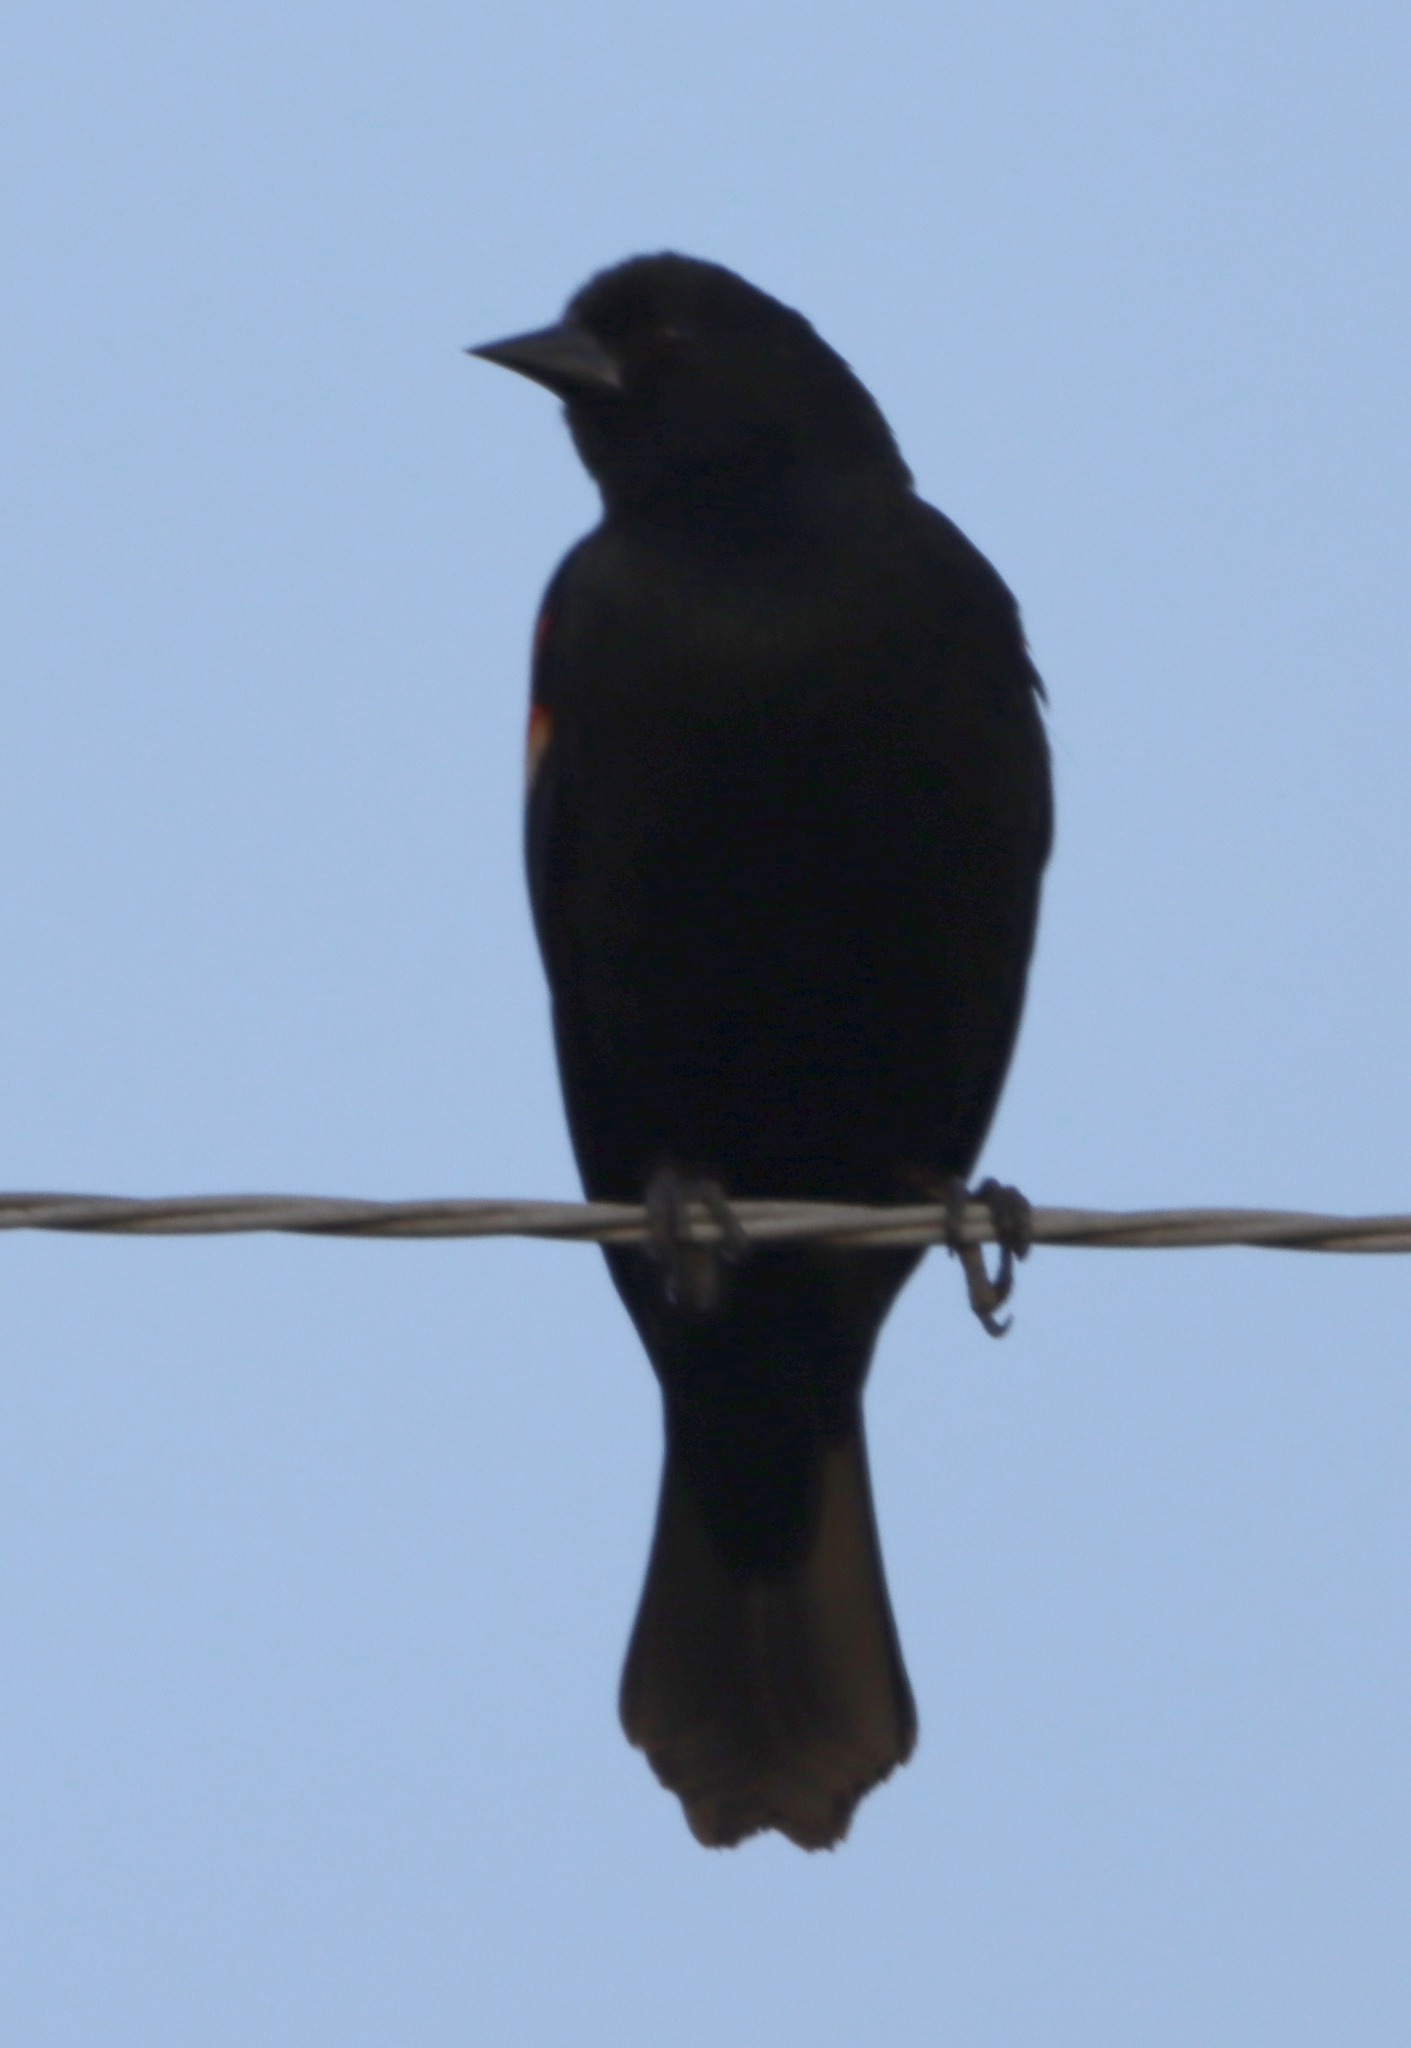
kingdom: Animalia
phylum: Chordata
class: Aves
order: Passeriformes
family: Icteridae
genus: Agelaius
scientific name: Agelaius phoeniceus
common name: Red-winged blackbird
